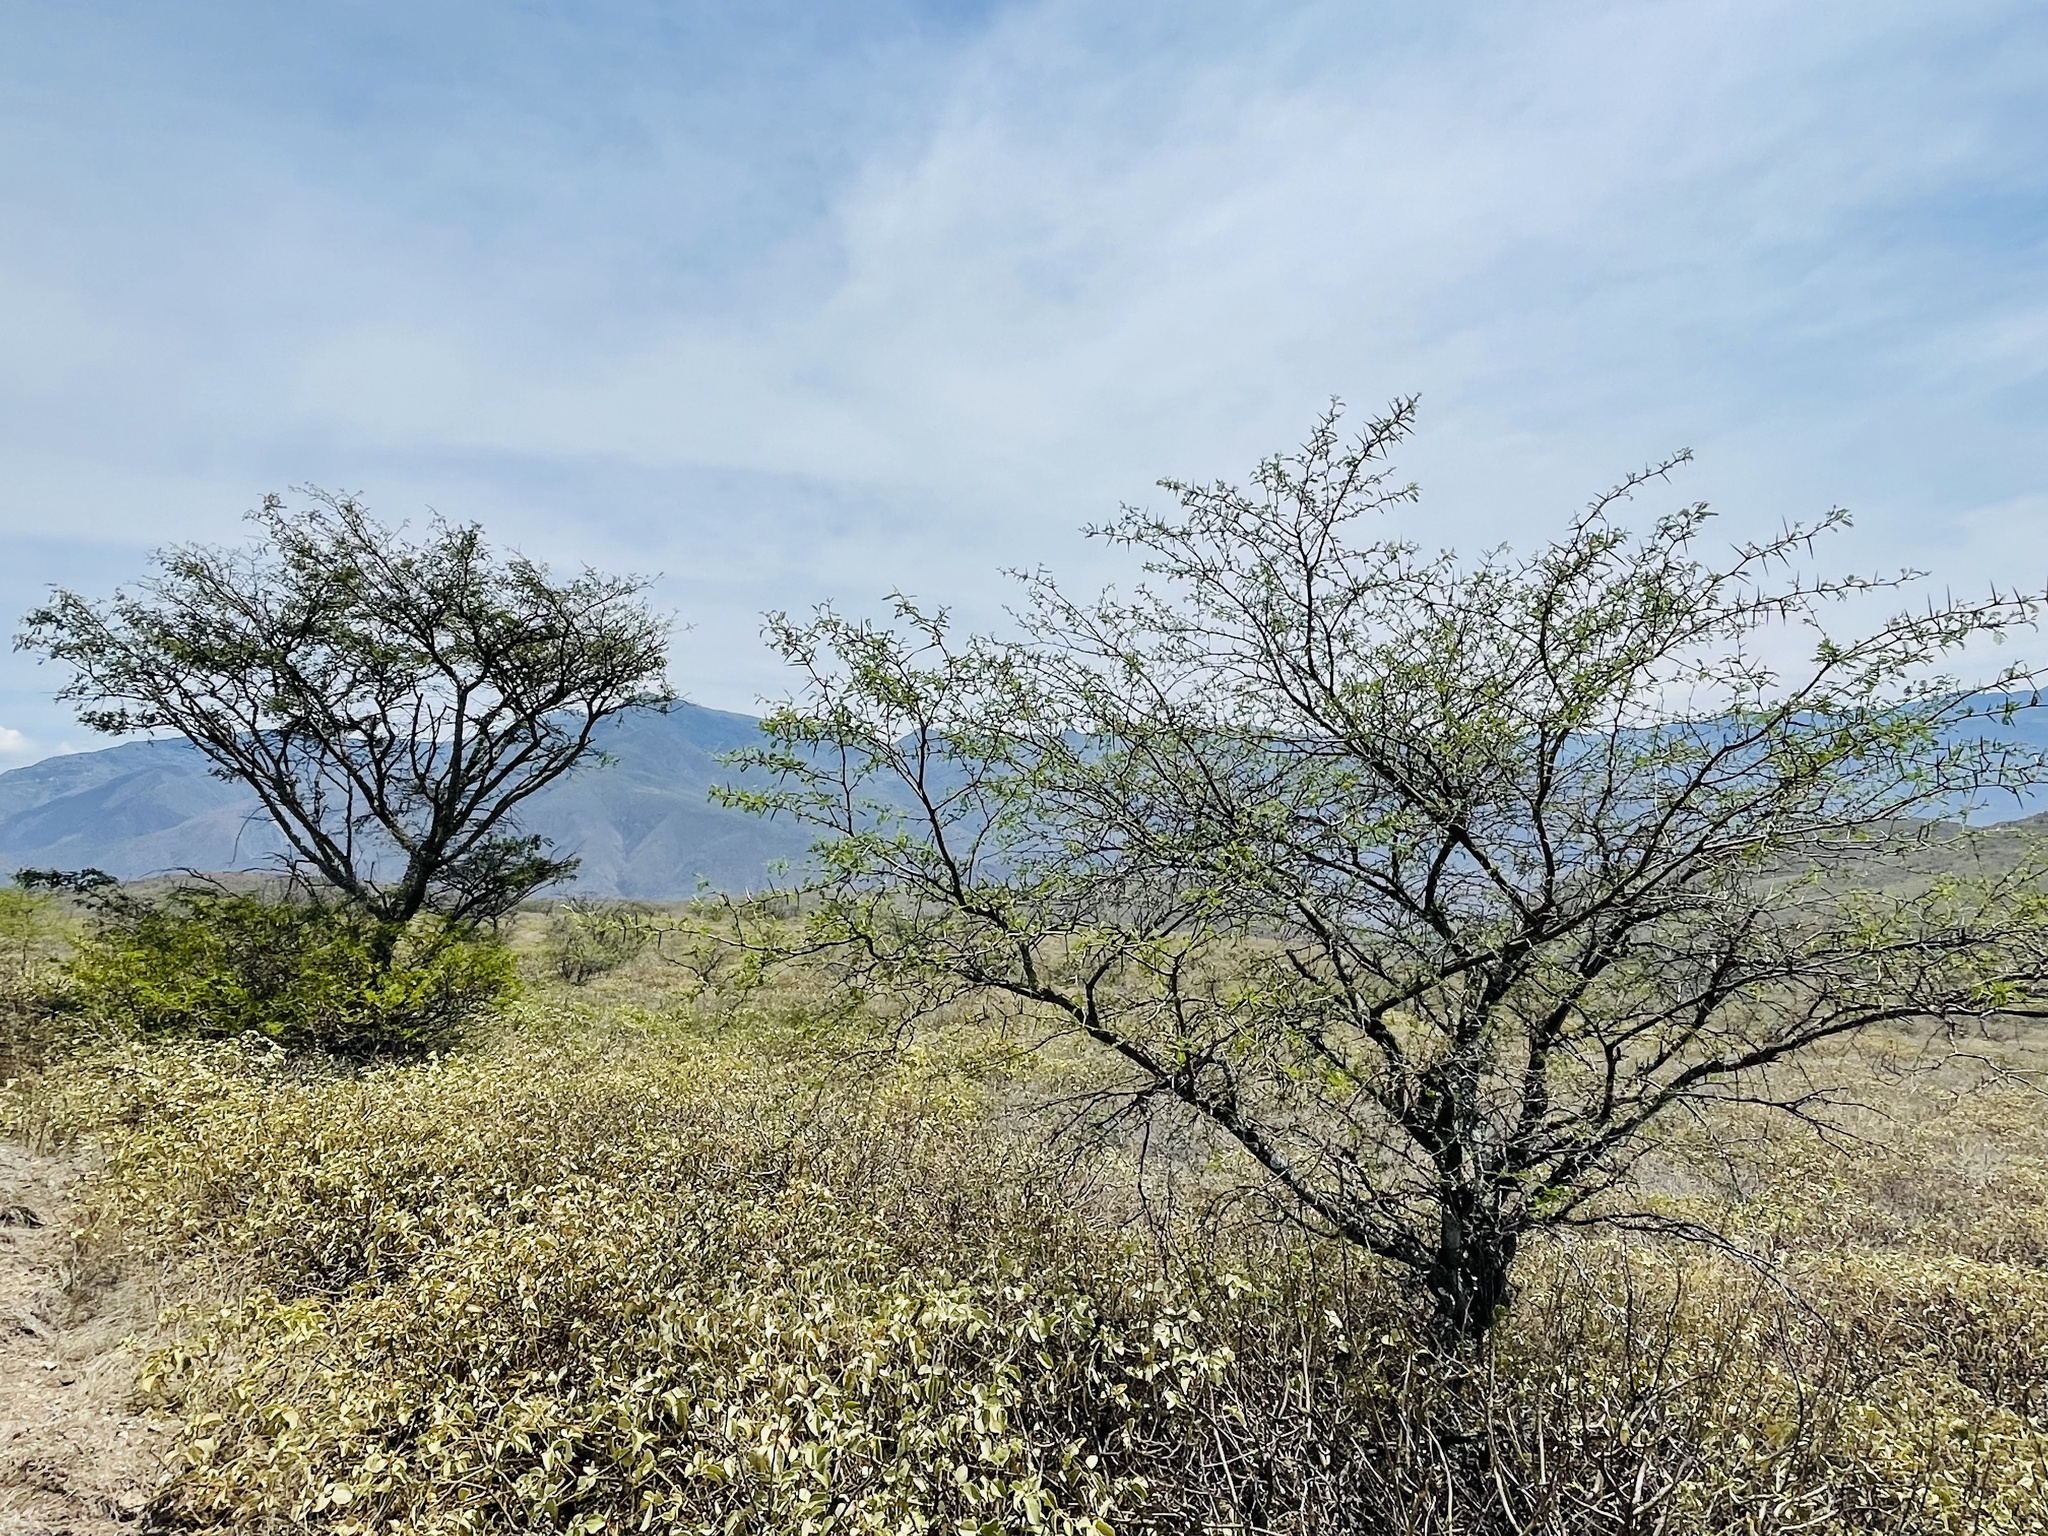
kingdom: Plantae
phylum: Tracheophyta
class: Magnoliopsida
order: Fabales
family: Fabaceae
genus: Vachellia
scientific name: Vachellia macracantha
